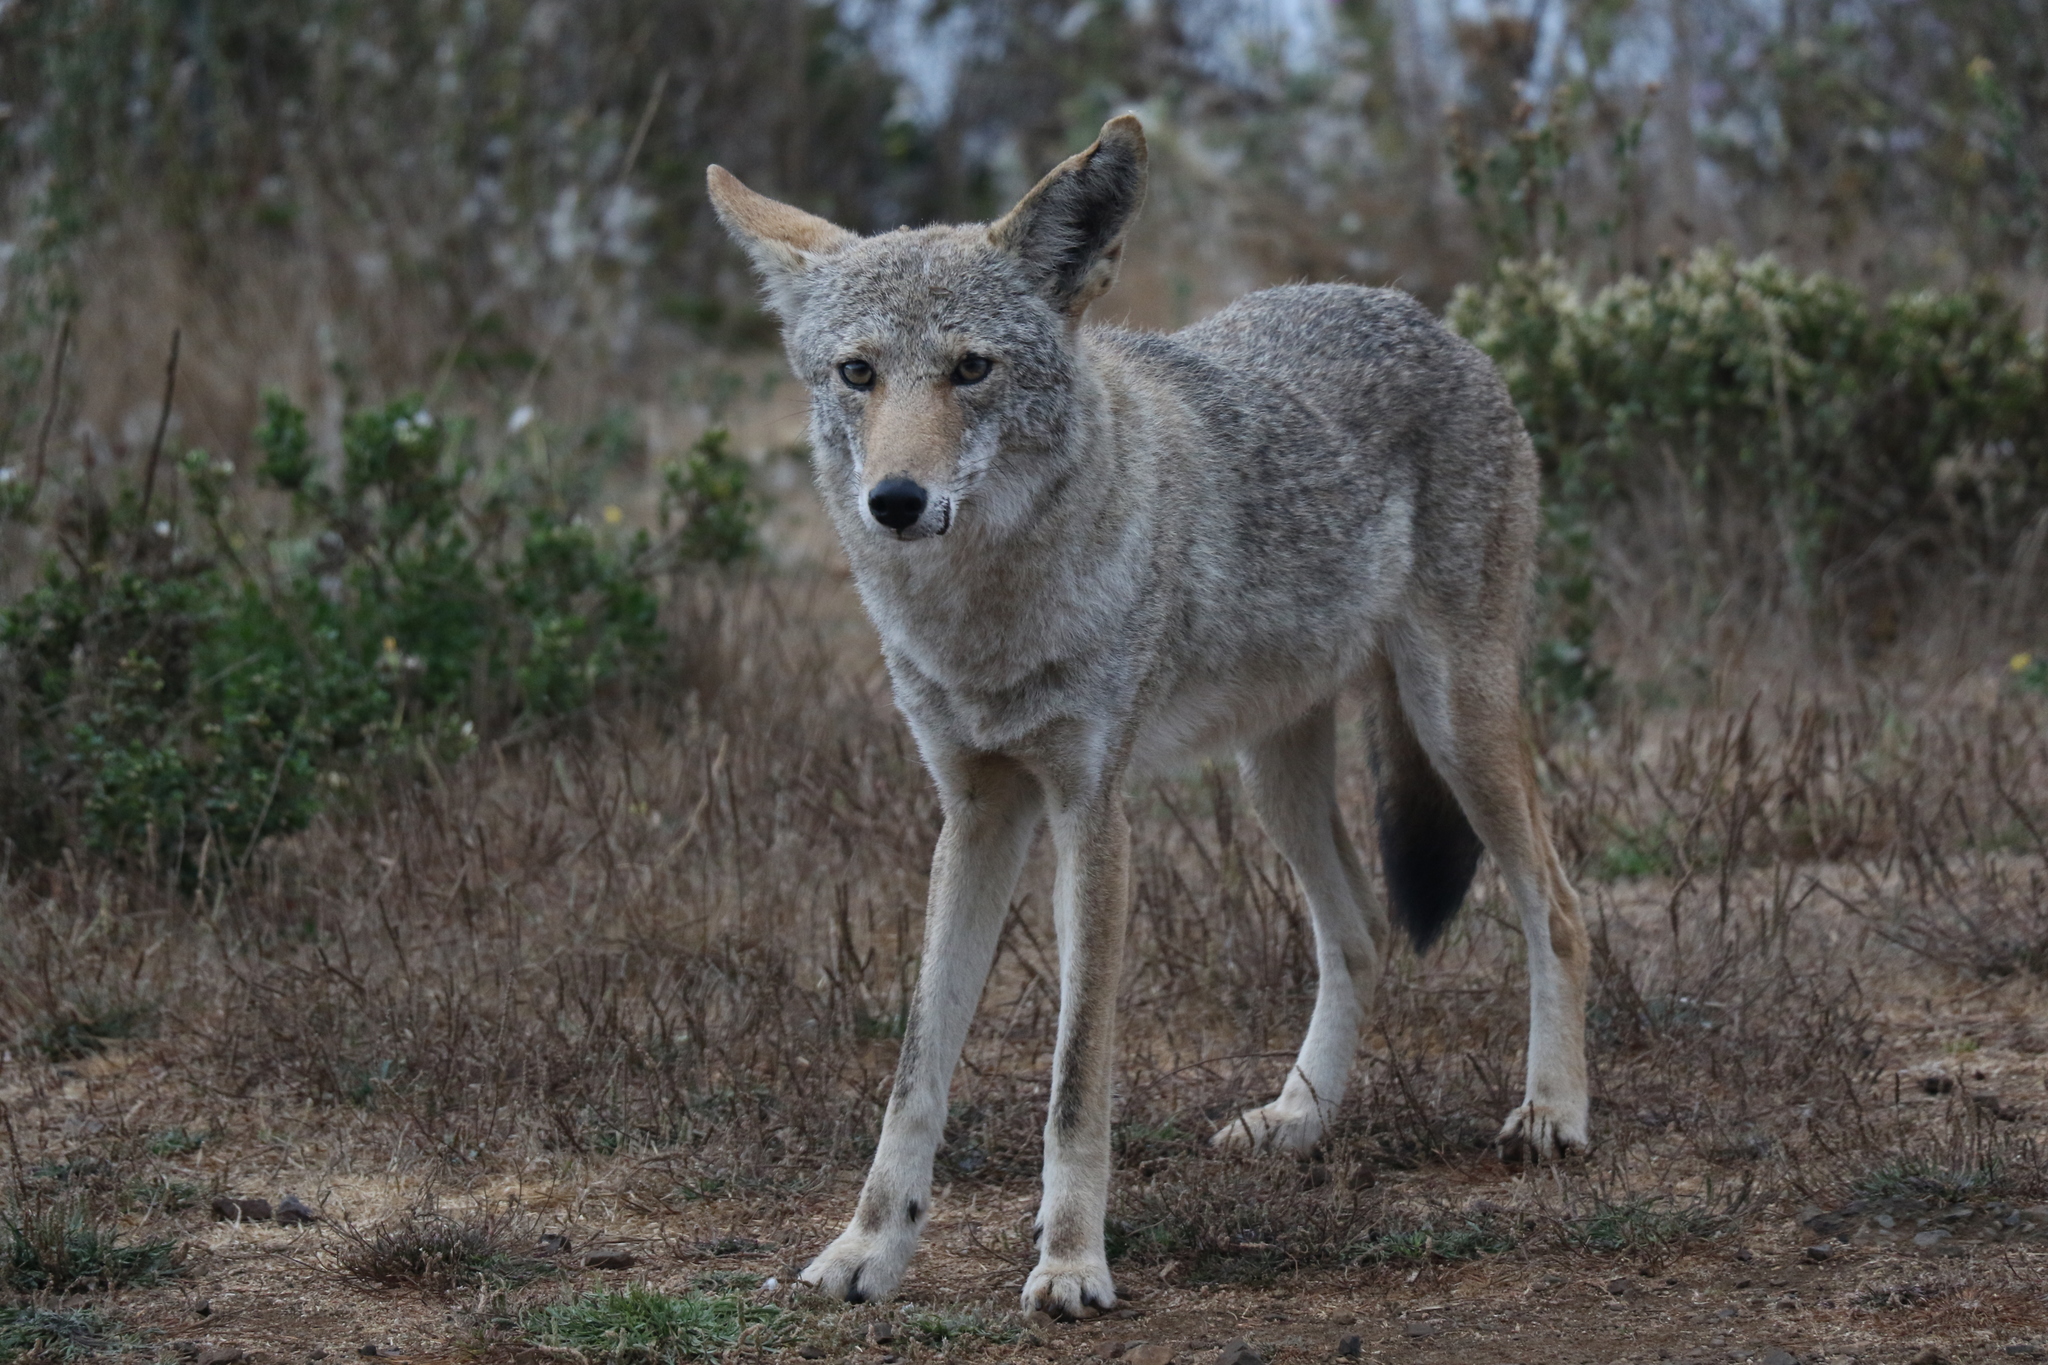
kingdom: Animalia
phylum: Chordata
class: Mammalia
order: Carnivora
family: Canidae
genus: Canis
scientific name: Canis latrans
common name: Coyote
